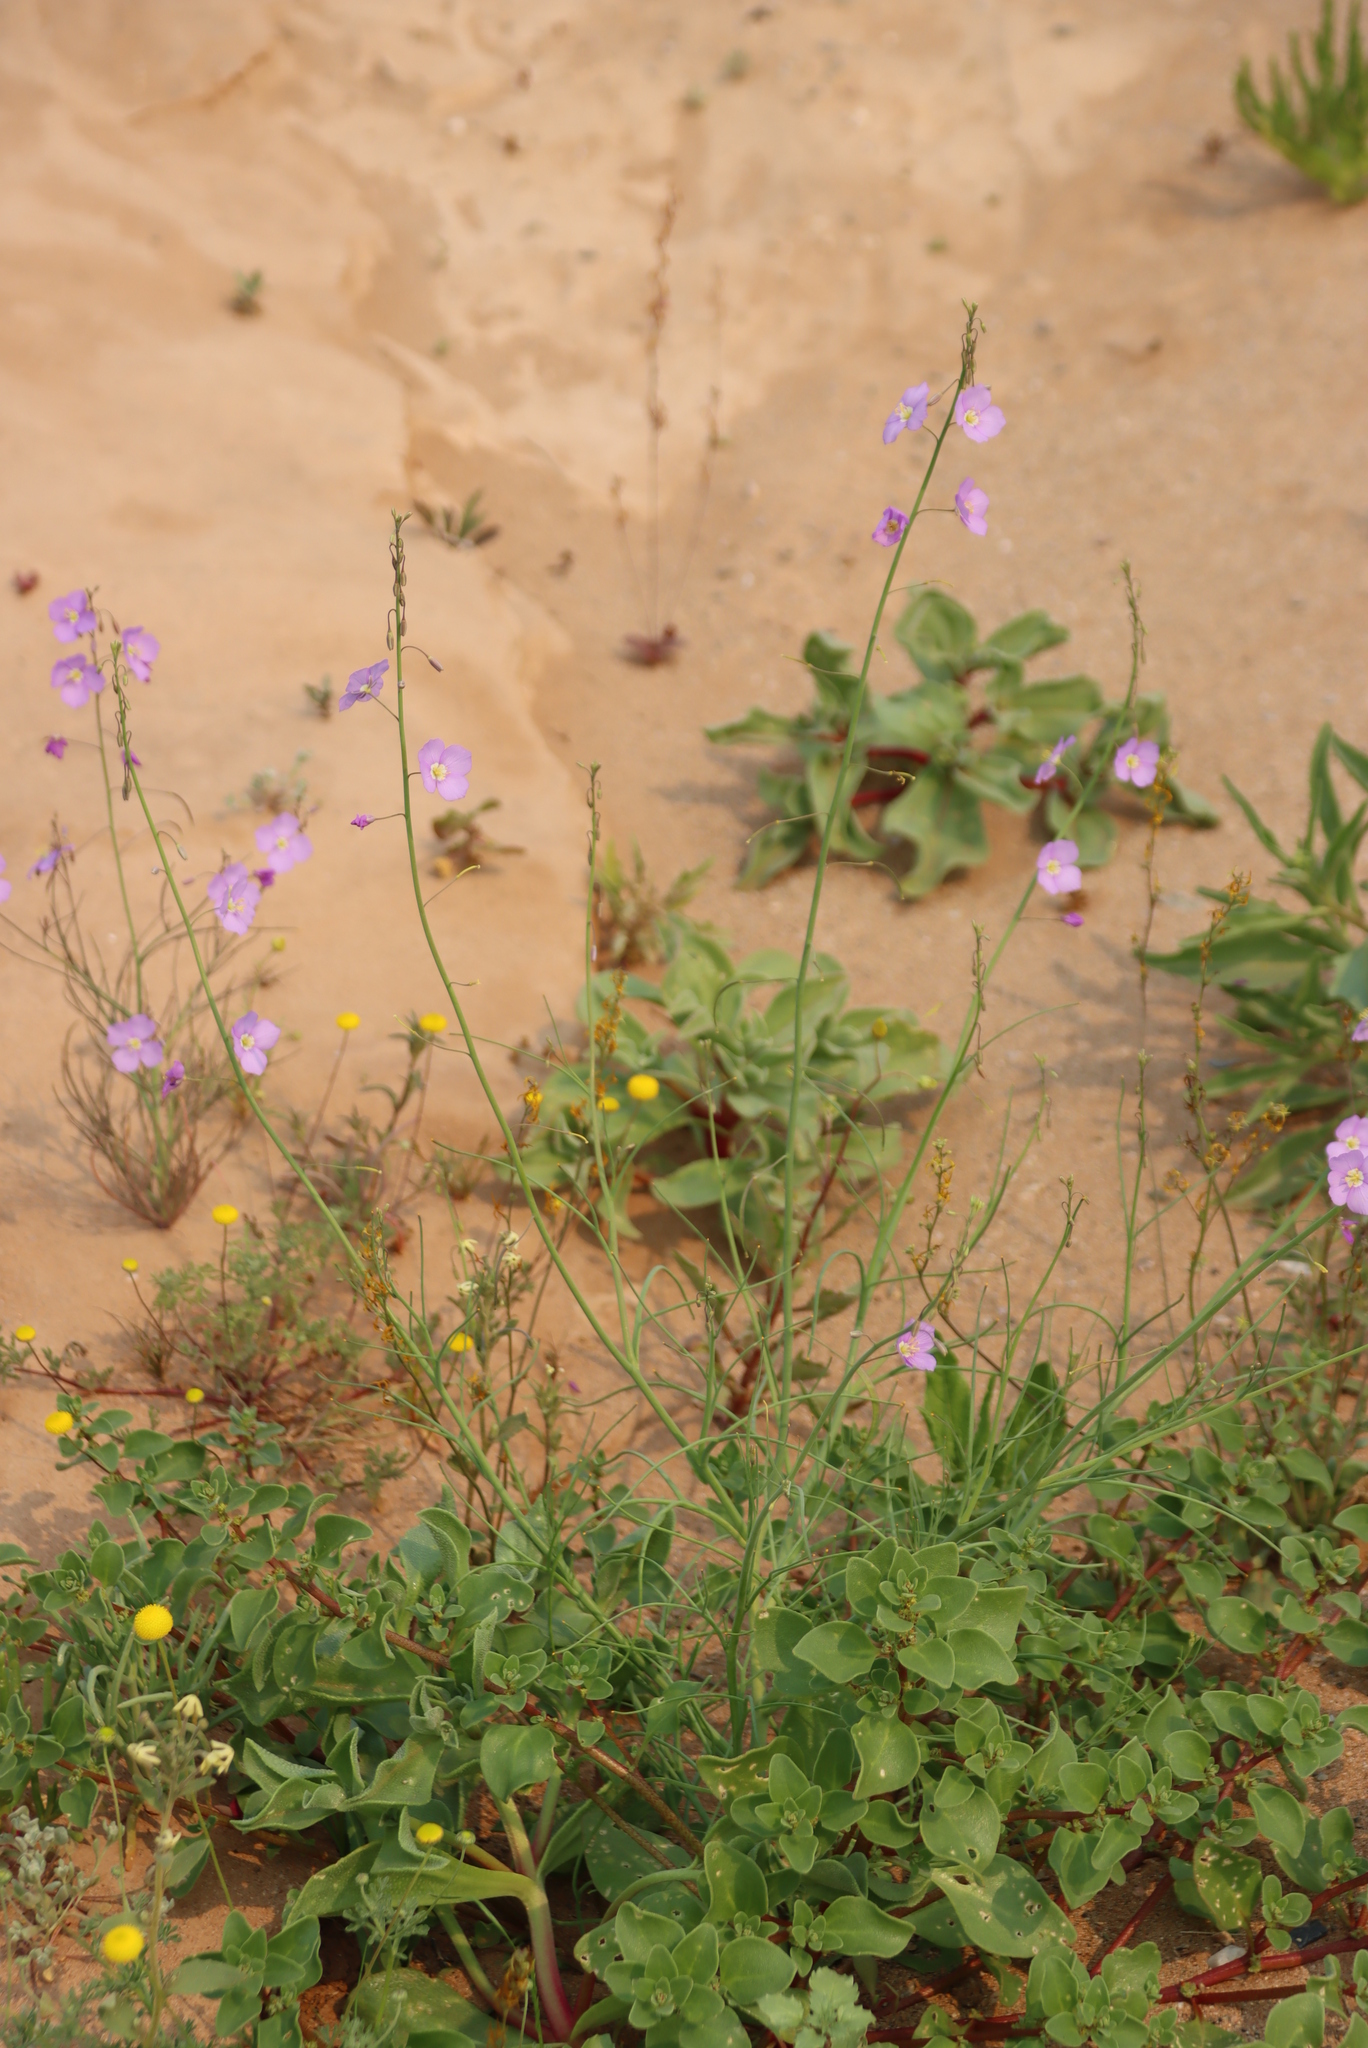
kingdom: Plantae
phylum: Tracheophyta
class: Magnoliopsida
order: Brassicales
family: Brassicaceae
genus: Heliophila
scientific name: Heliophila trifurca
